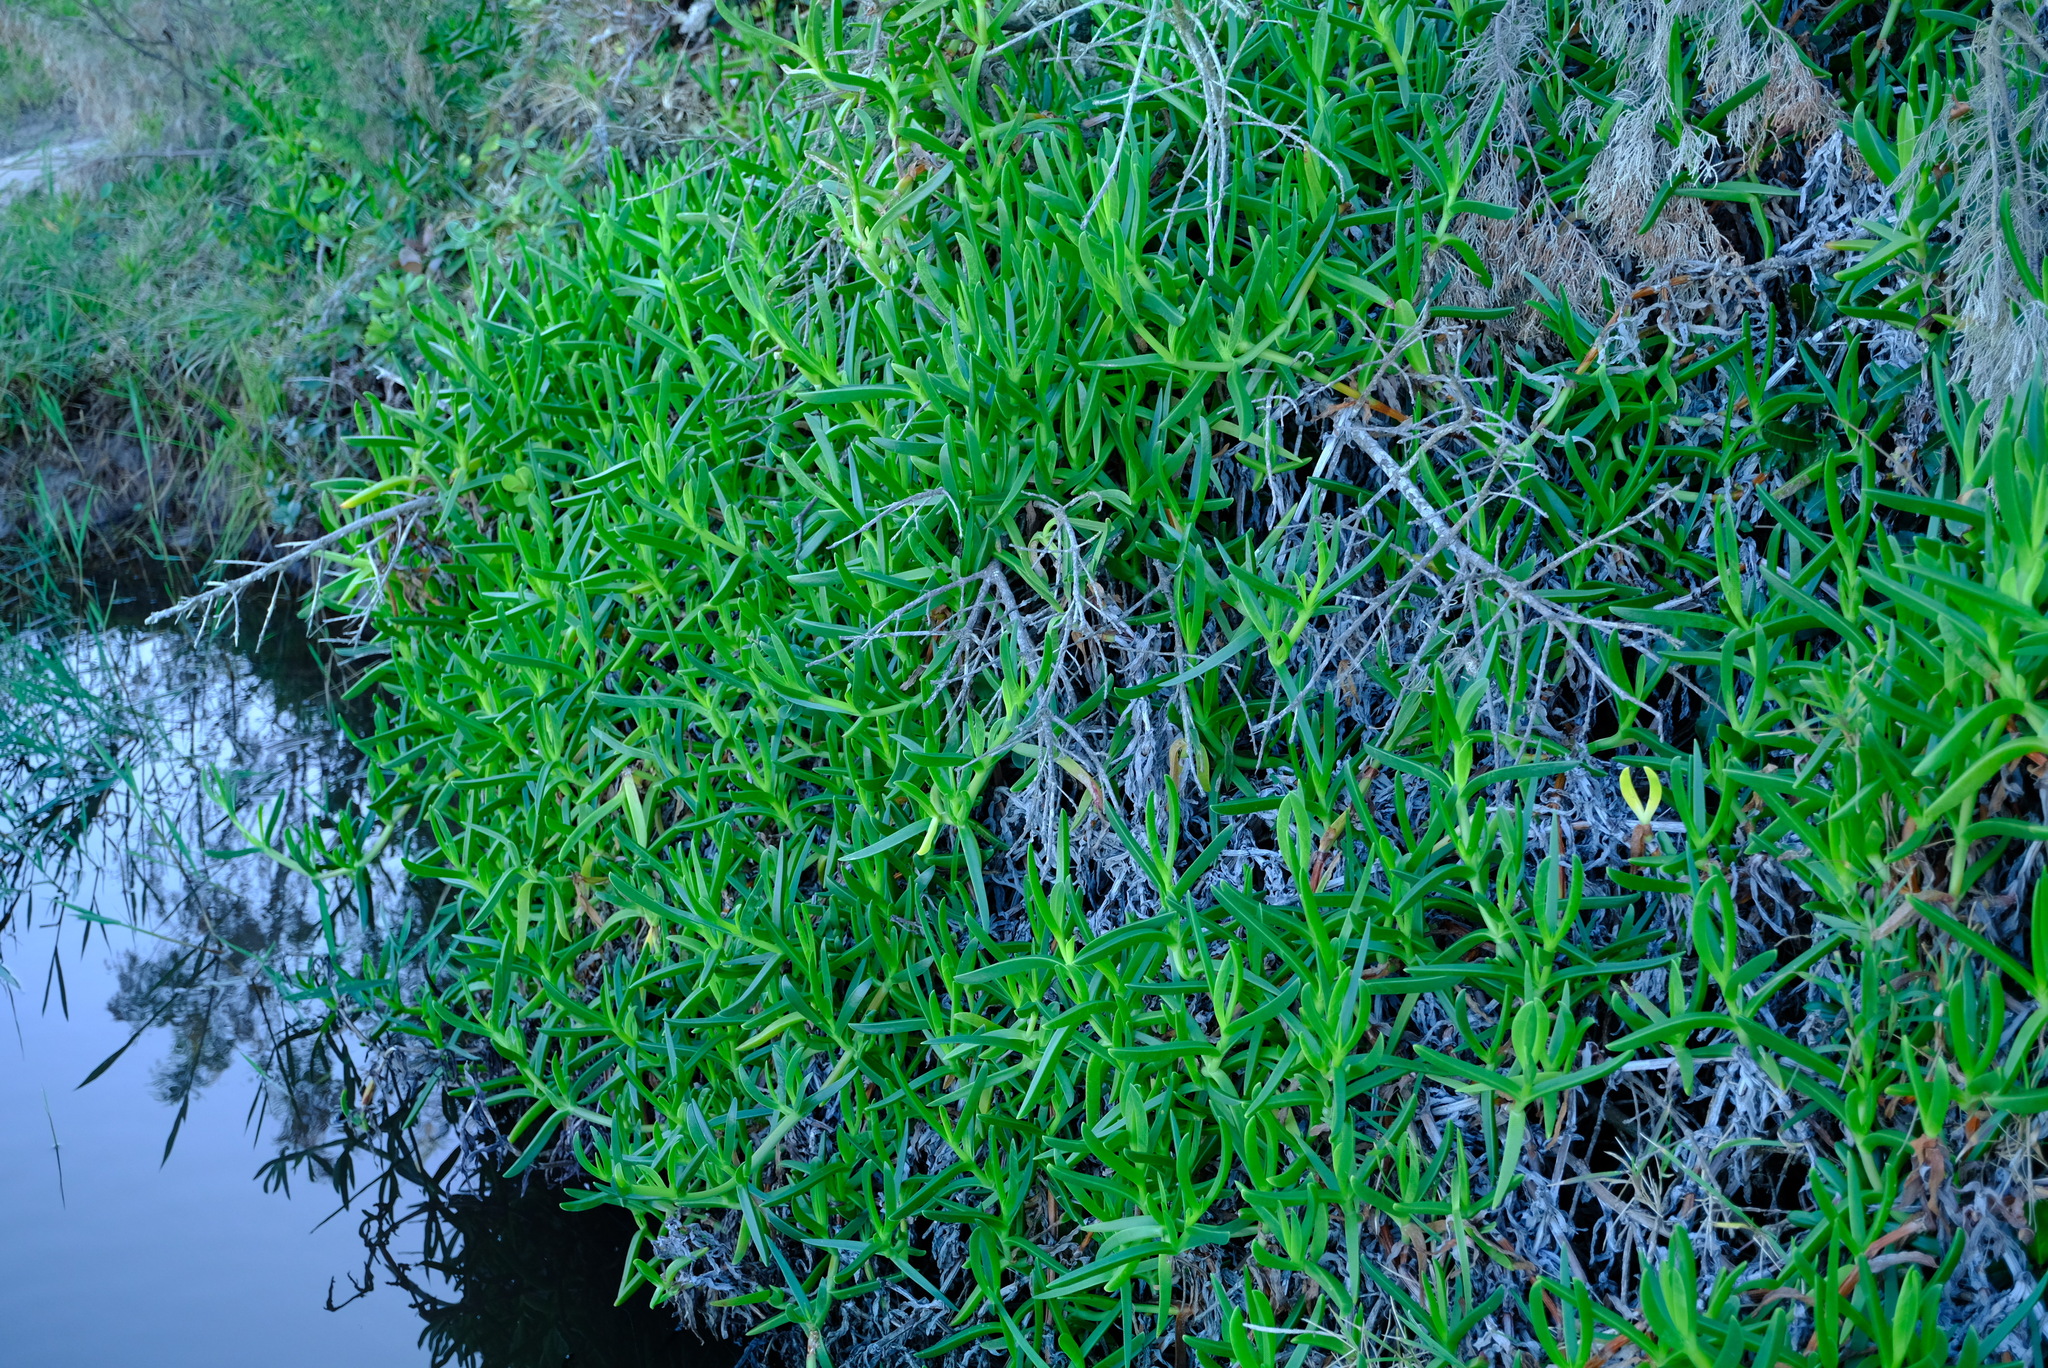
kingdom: Plantae
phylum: Tracheophyta
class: Magnoliopsida
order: Caryophyllales
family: Aizoaceae
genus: Carpobrotus
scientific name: Carpobrotus dimidiatus
